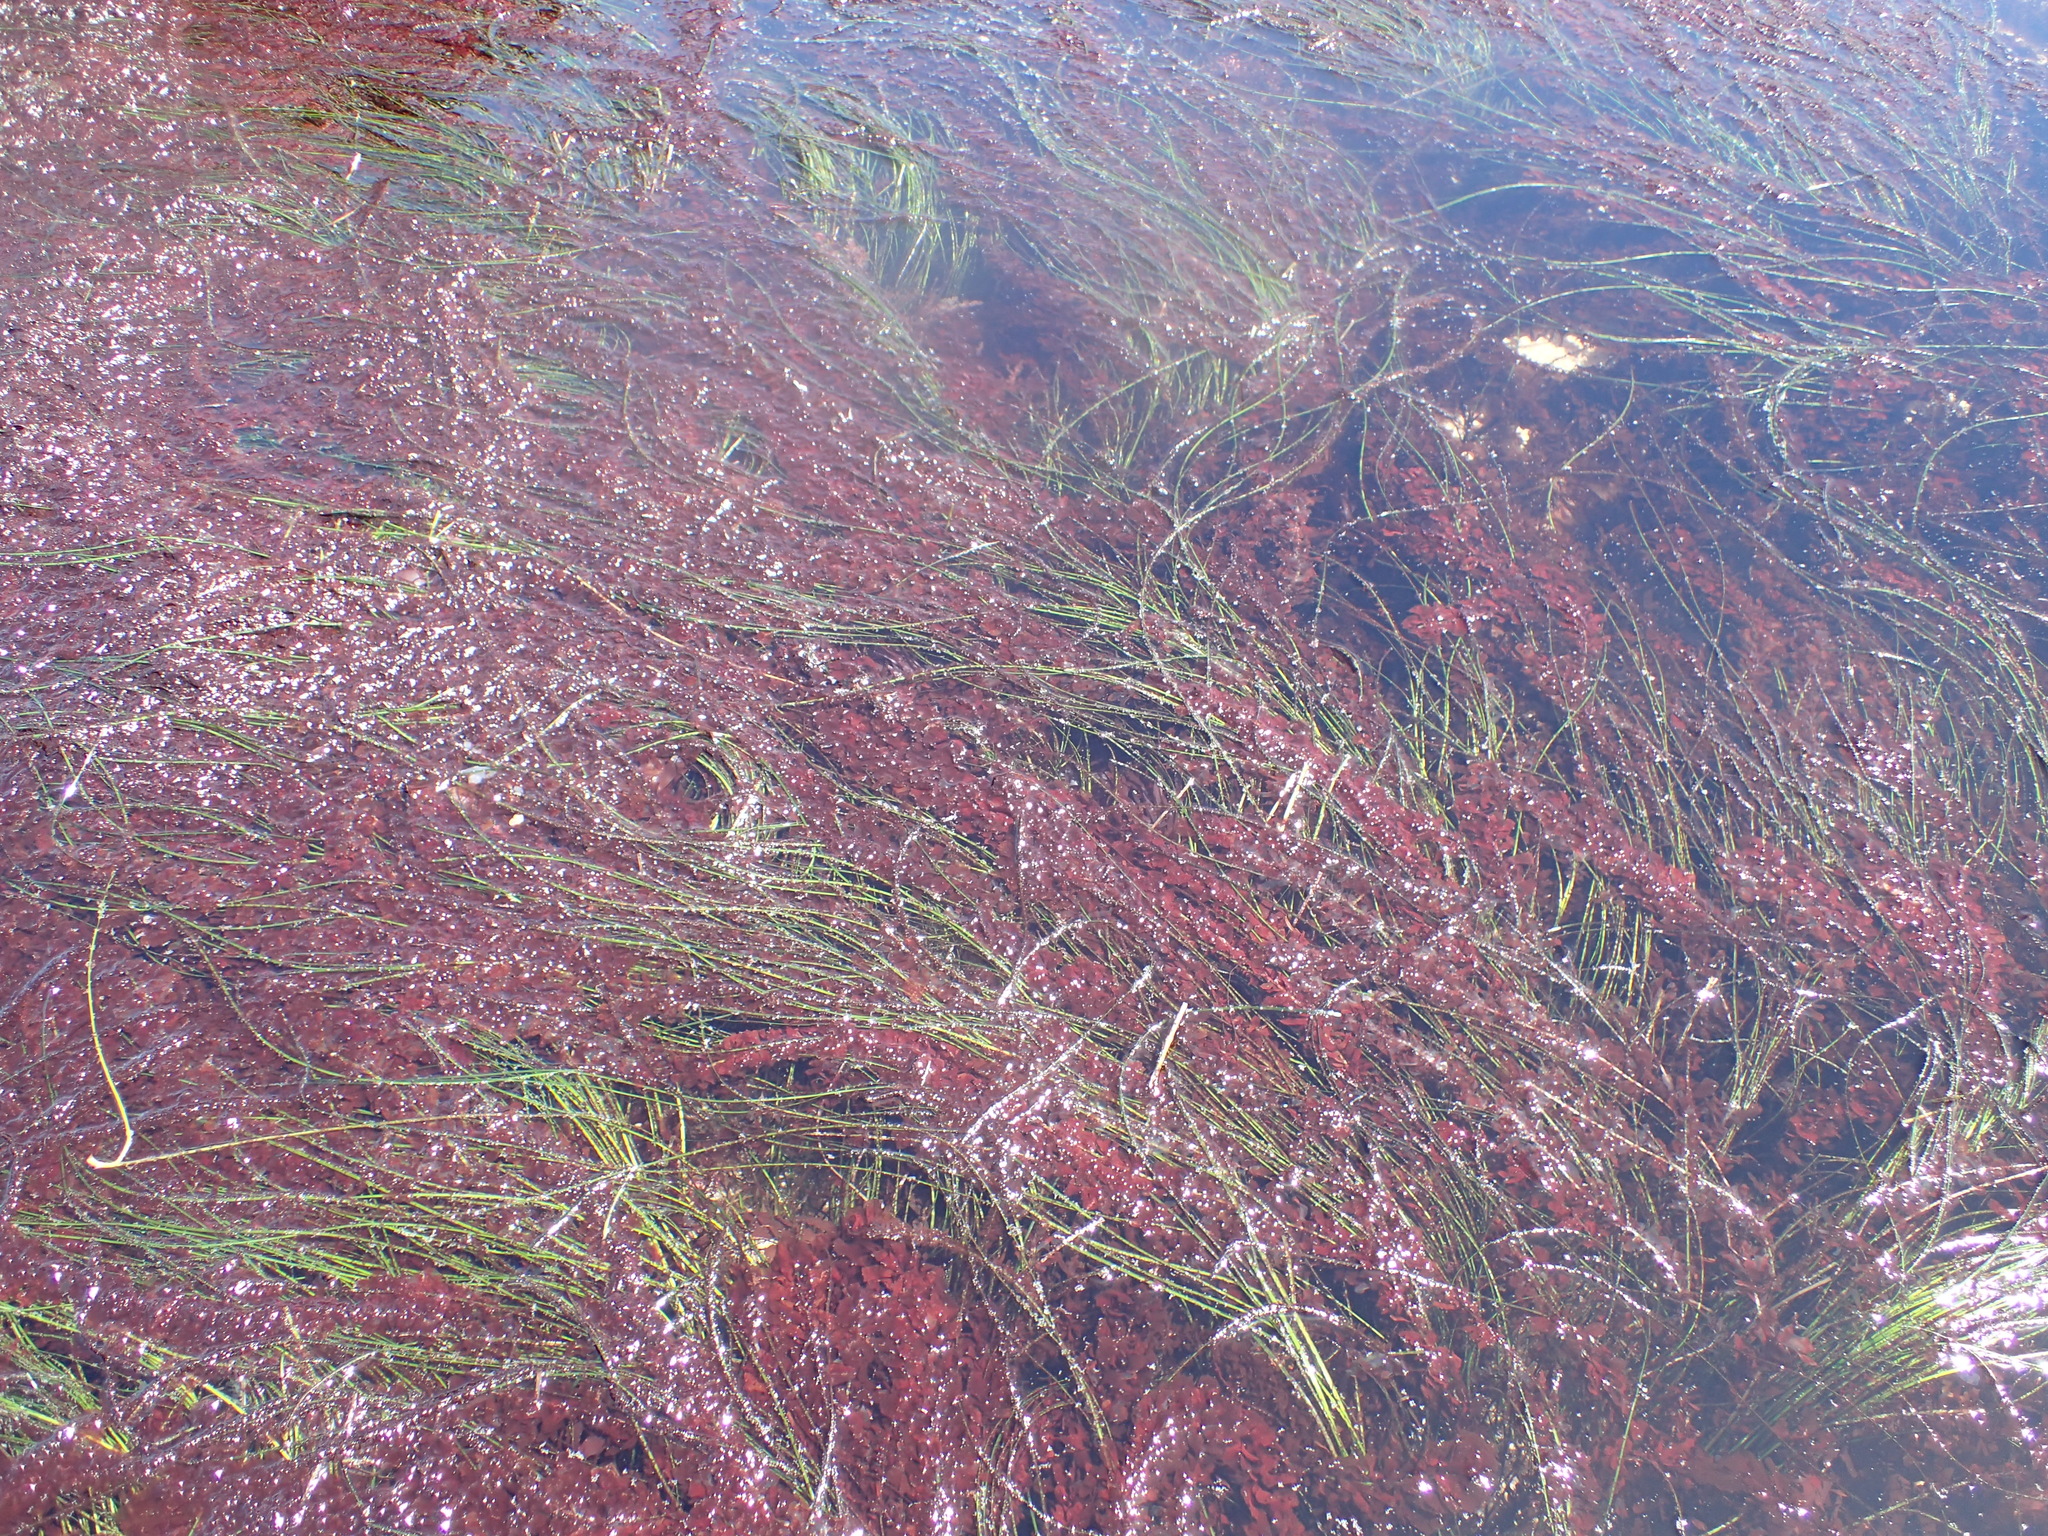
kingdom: Plantae
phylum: Rhodophyta
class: Compsopogonophyceae
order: Erythropeltidales
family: Erythrotrichiaceae
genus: Smithora
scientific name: Smithora naiadum
